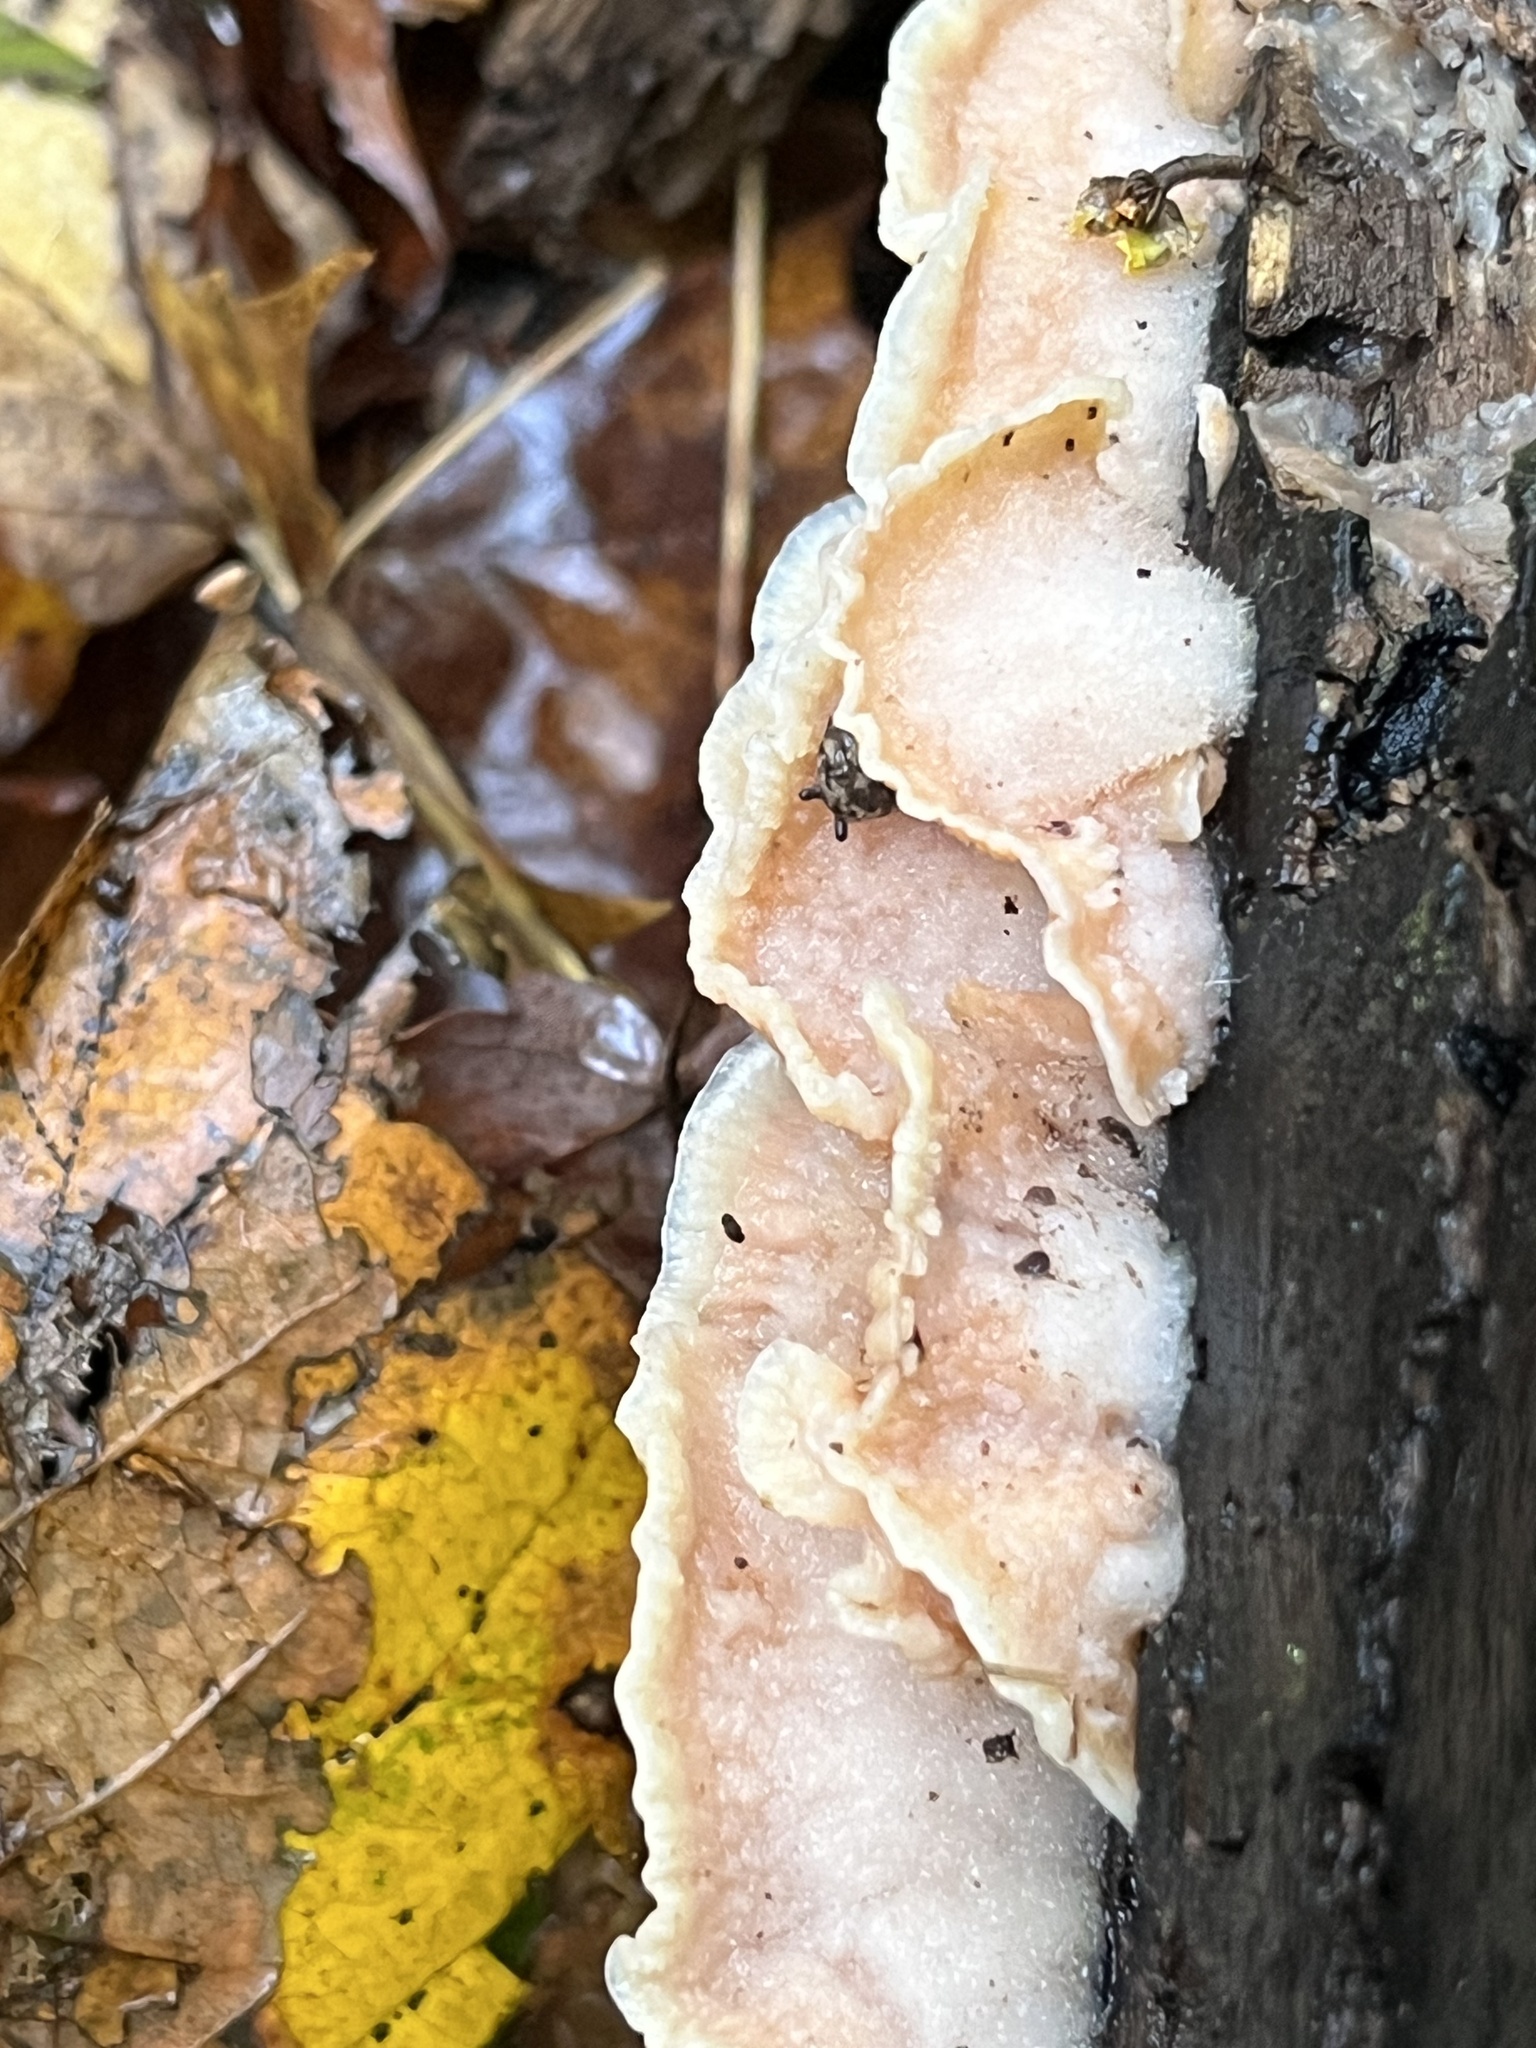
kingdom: Fungi
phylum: Basidiomycota
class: Agaricomycetes
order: Polyporales
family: Meruliaceae
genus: Phlebia
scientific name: Phlebia tremellosa
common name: Jelly rot
